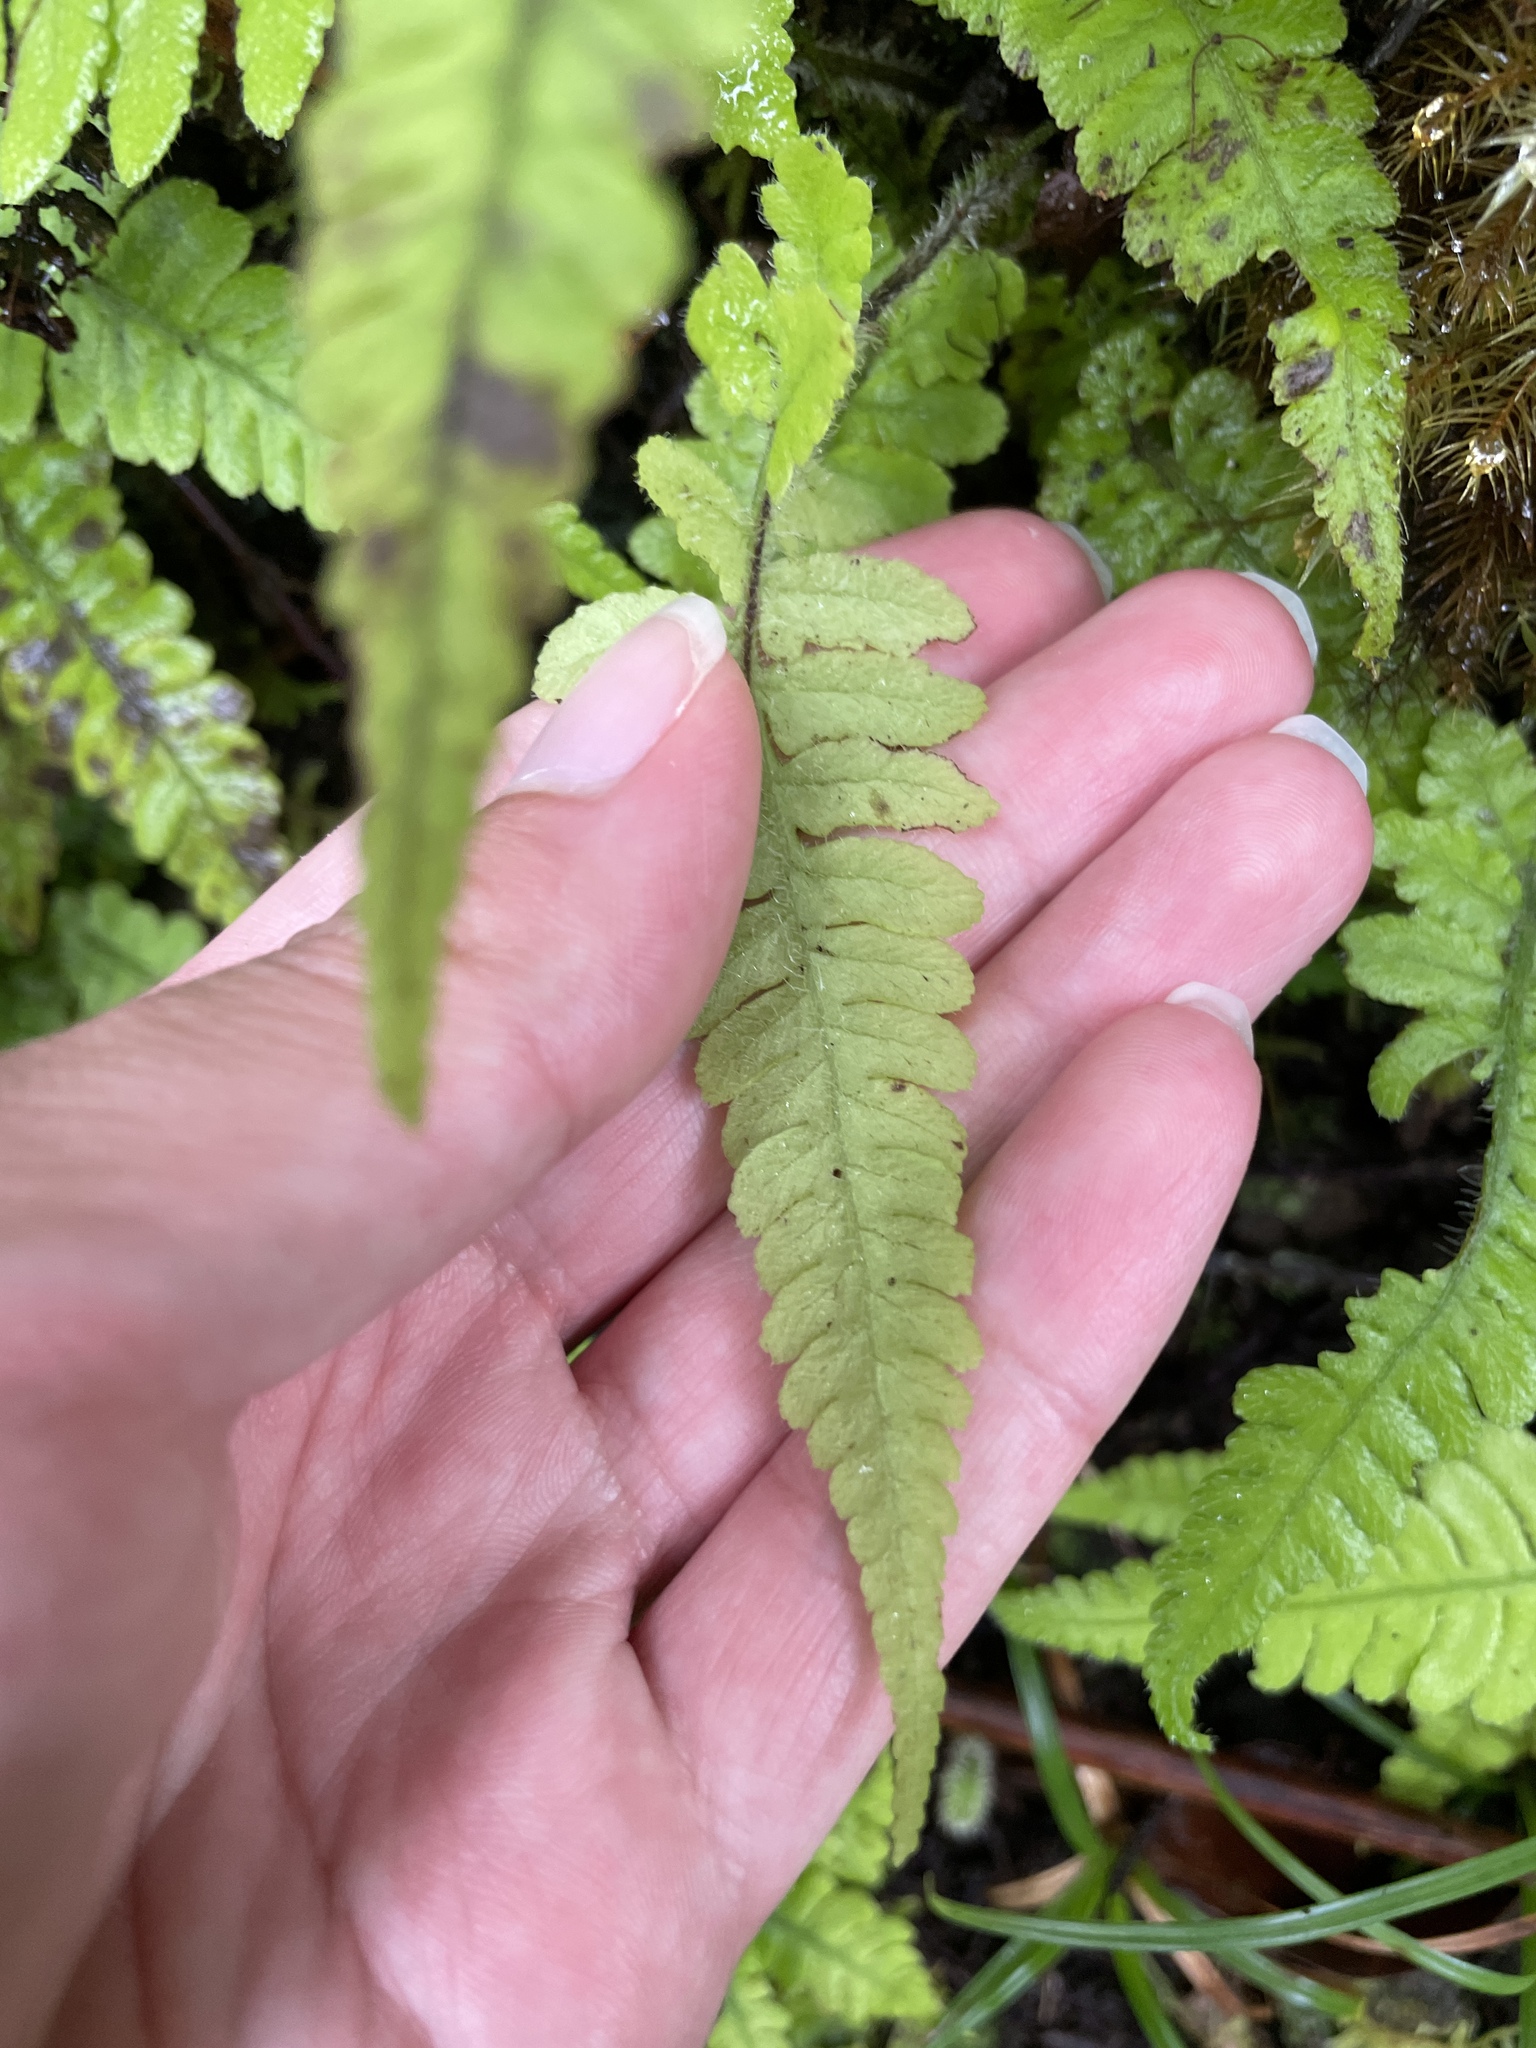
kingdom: Plantae
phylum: Tracheophyta
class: Polypodiopsida
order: Polypodiales
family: Athyriaceae
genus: Deparia
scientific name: Deparia petersenii
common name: Japanese false spleenwort
